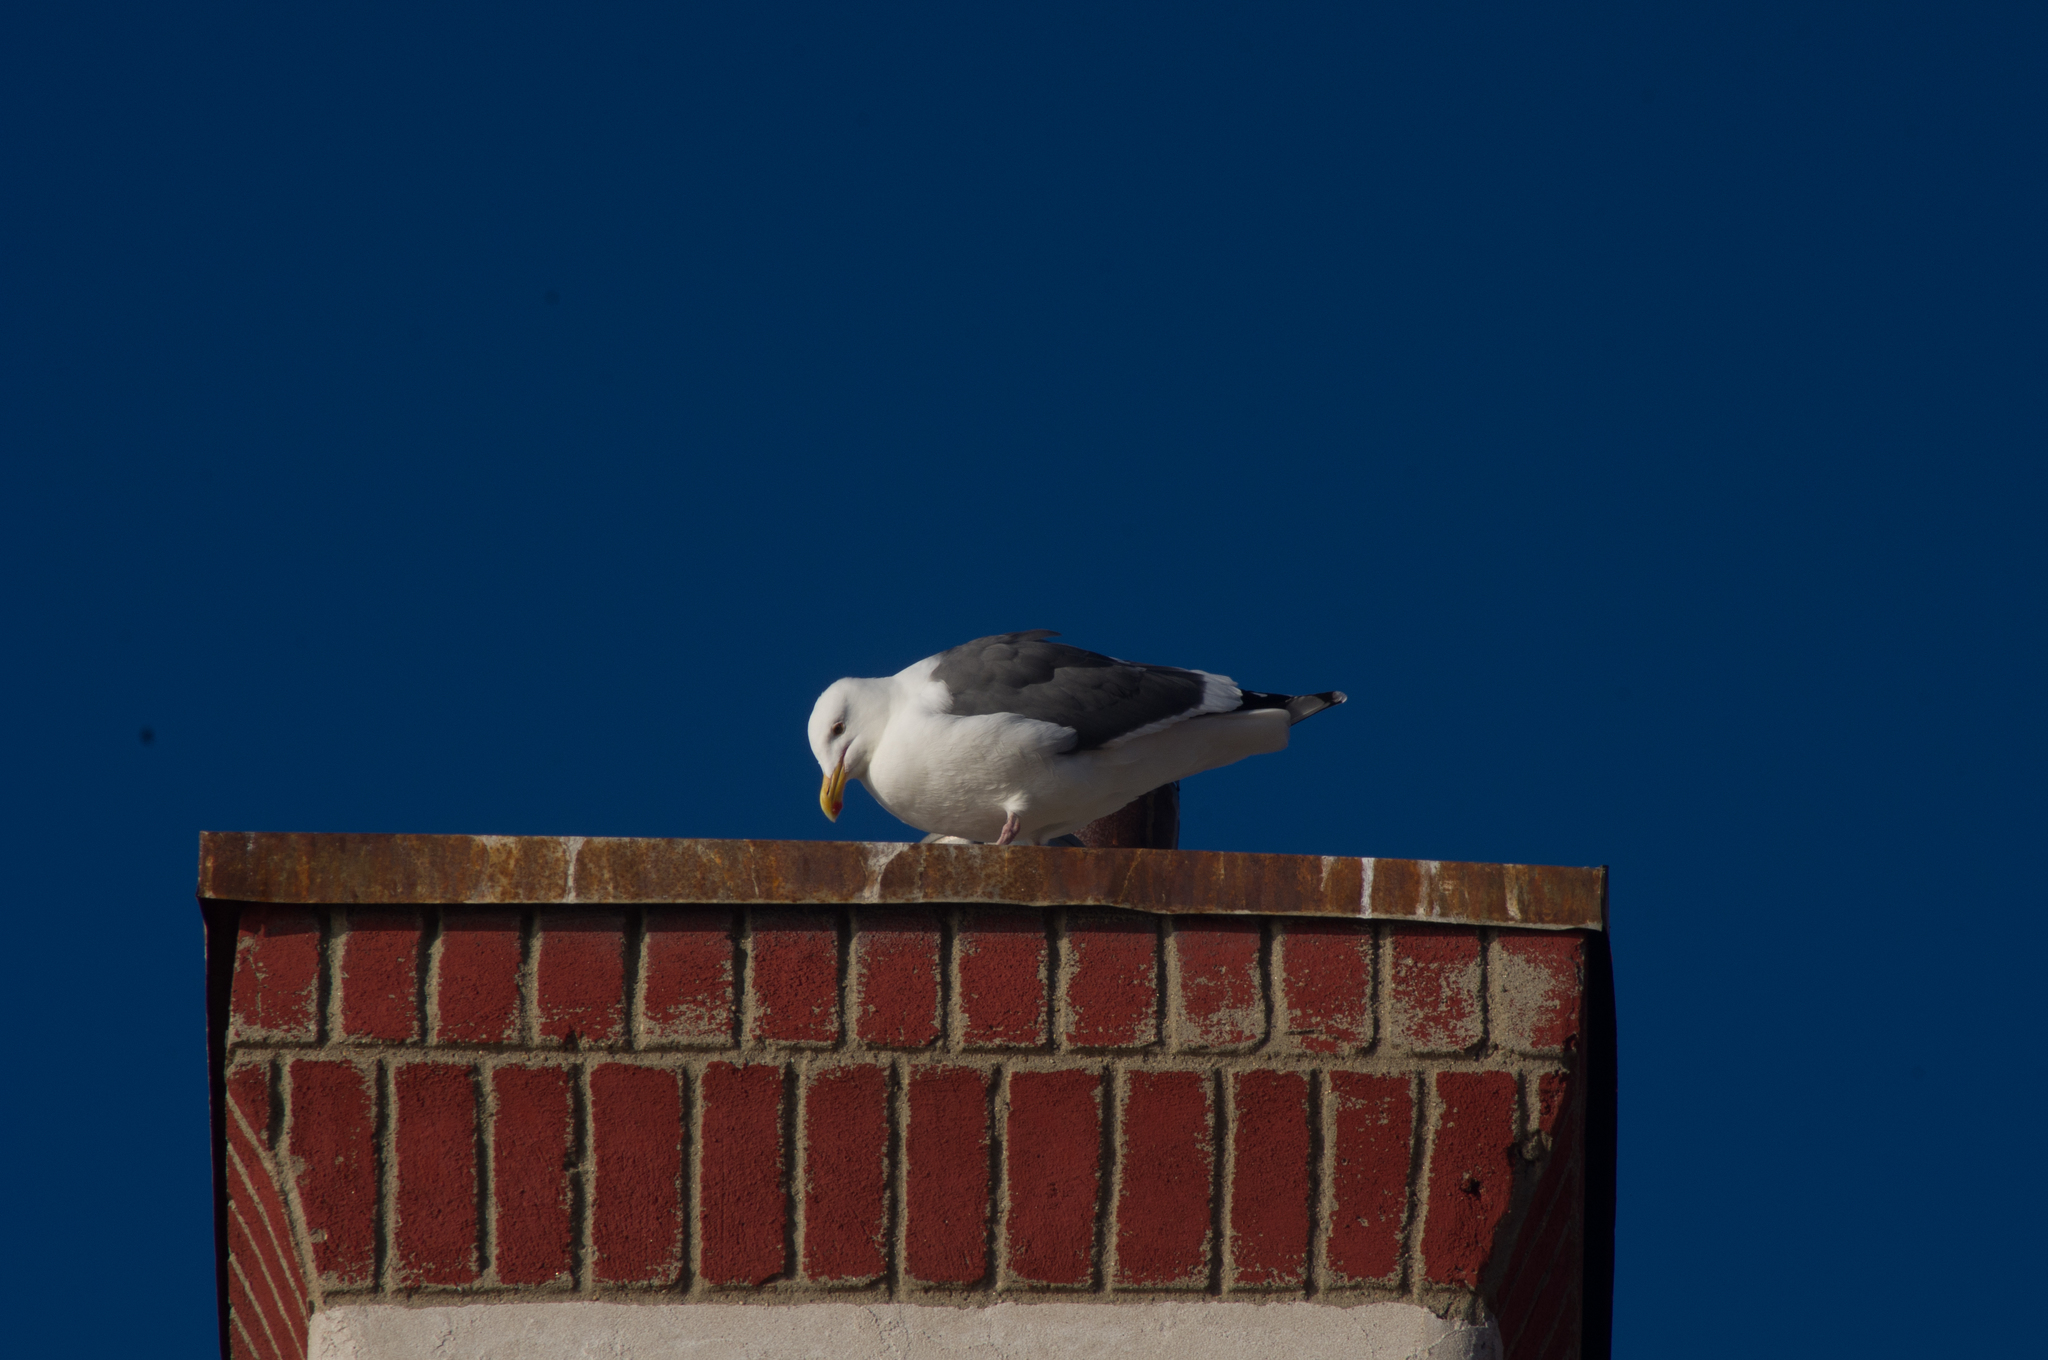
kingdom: Animalia
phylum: Chordata
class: Aves
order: Charadriiformes
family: Laridae
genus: Larus
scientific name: Larus occidentalis
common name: Western gull
